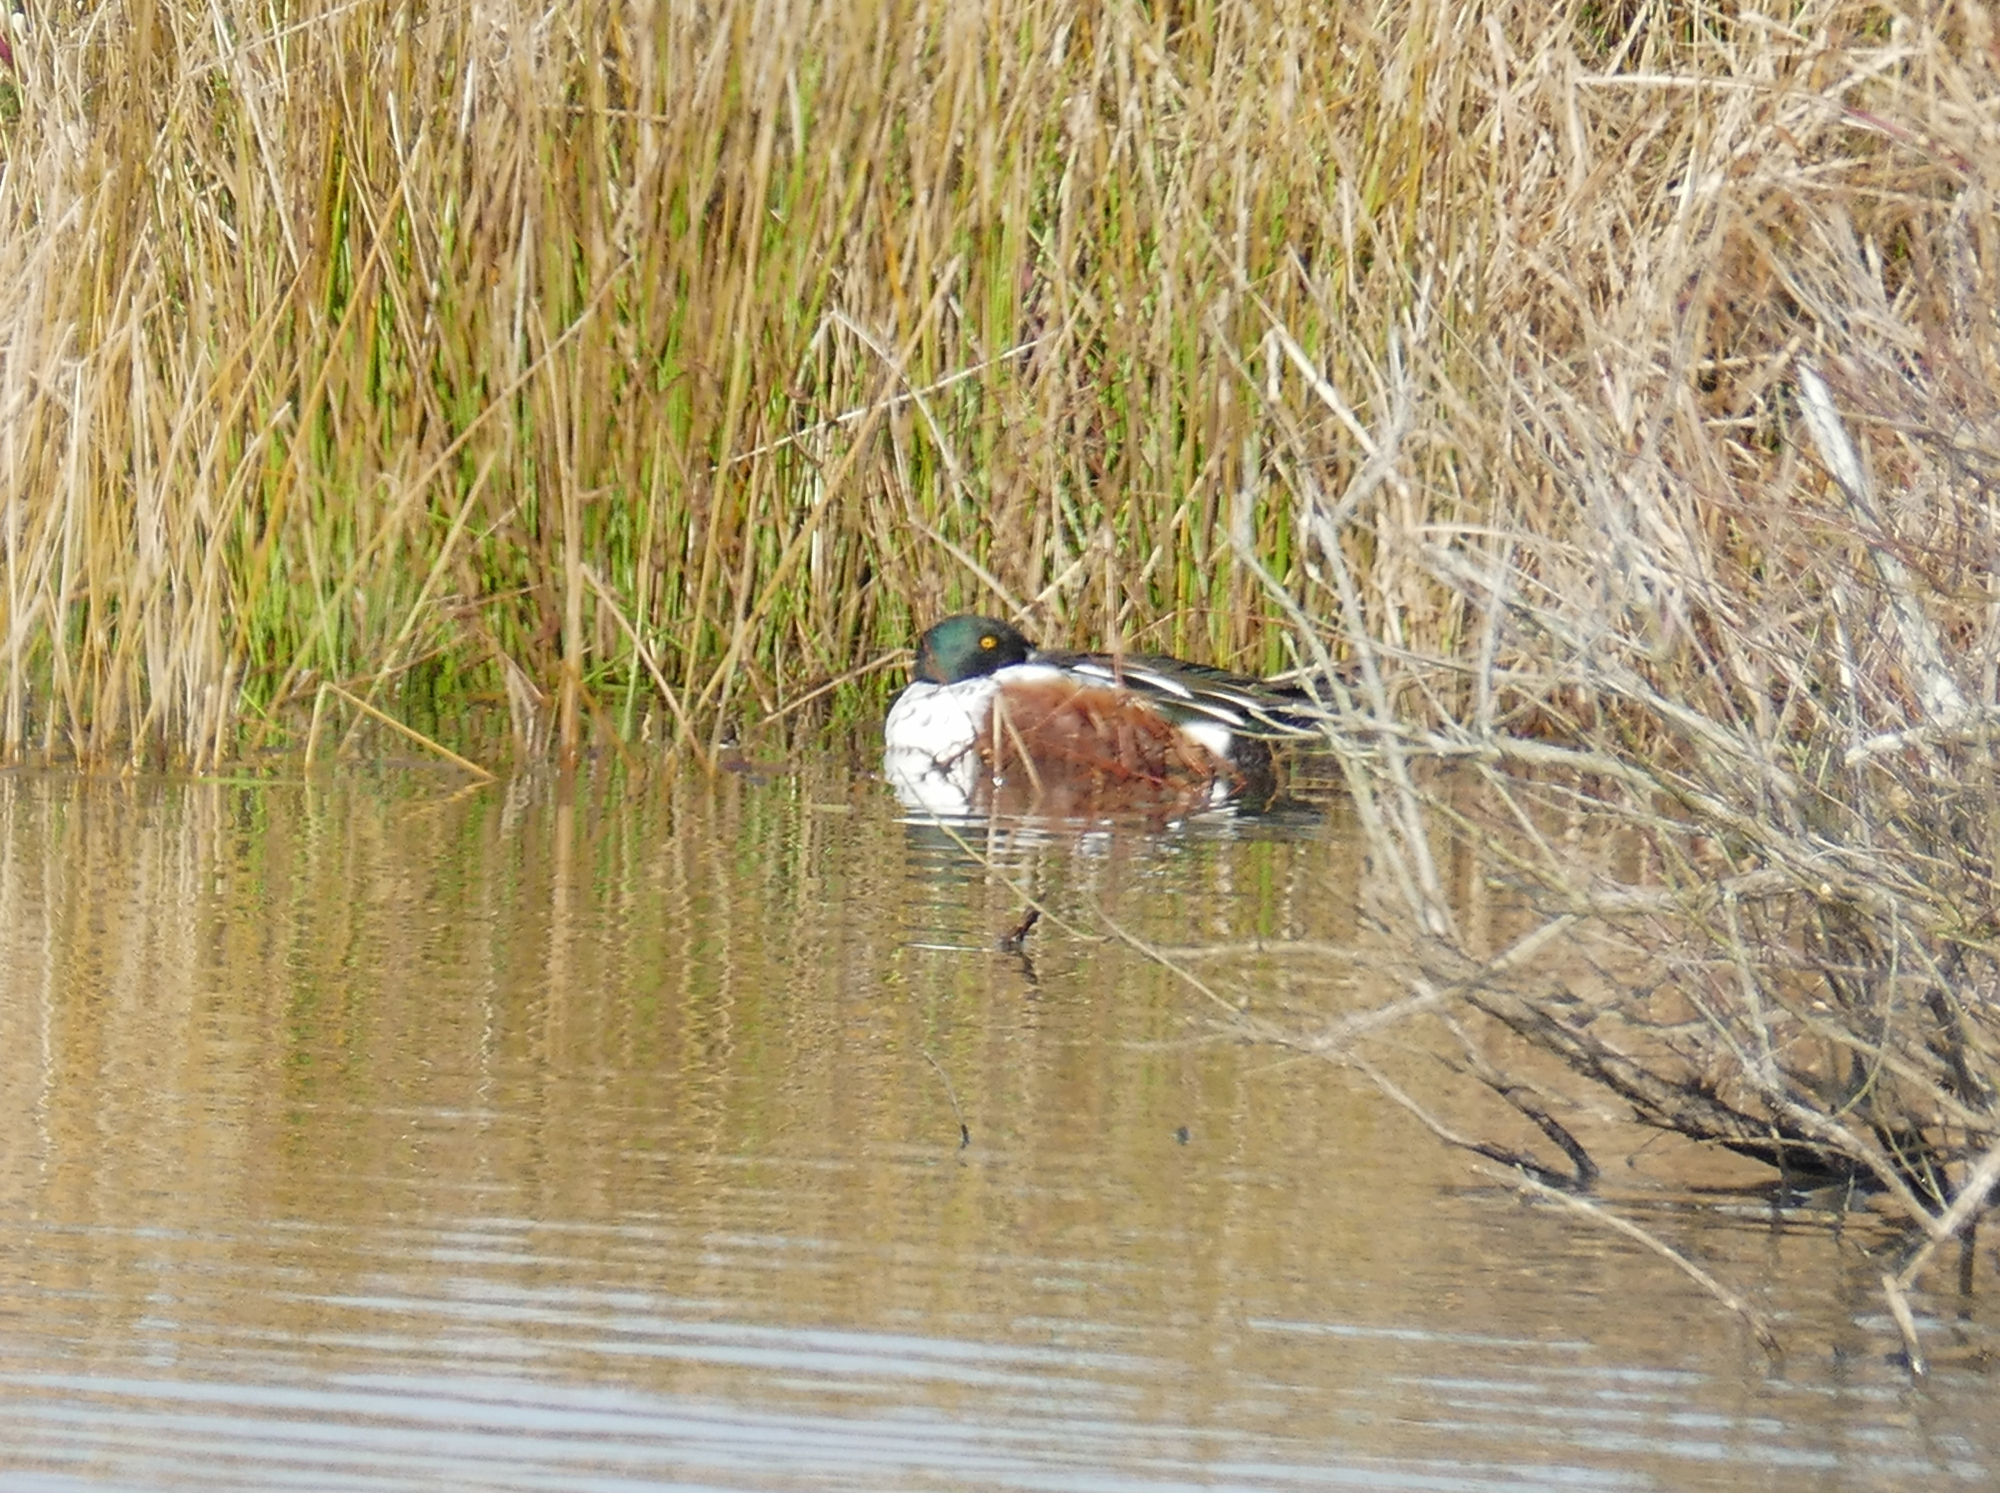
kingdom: Animalia
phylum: Chordata
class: Aves
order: Anseriformes
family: Anatidae
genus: Spatula
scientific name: Spatula clypeata
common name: Northern shoveler
